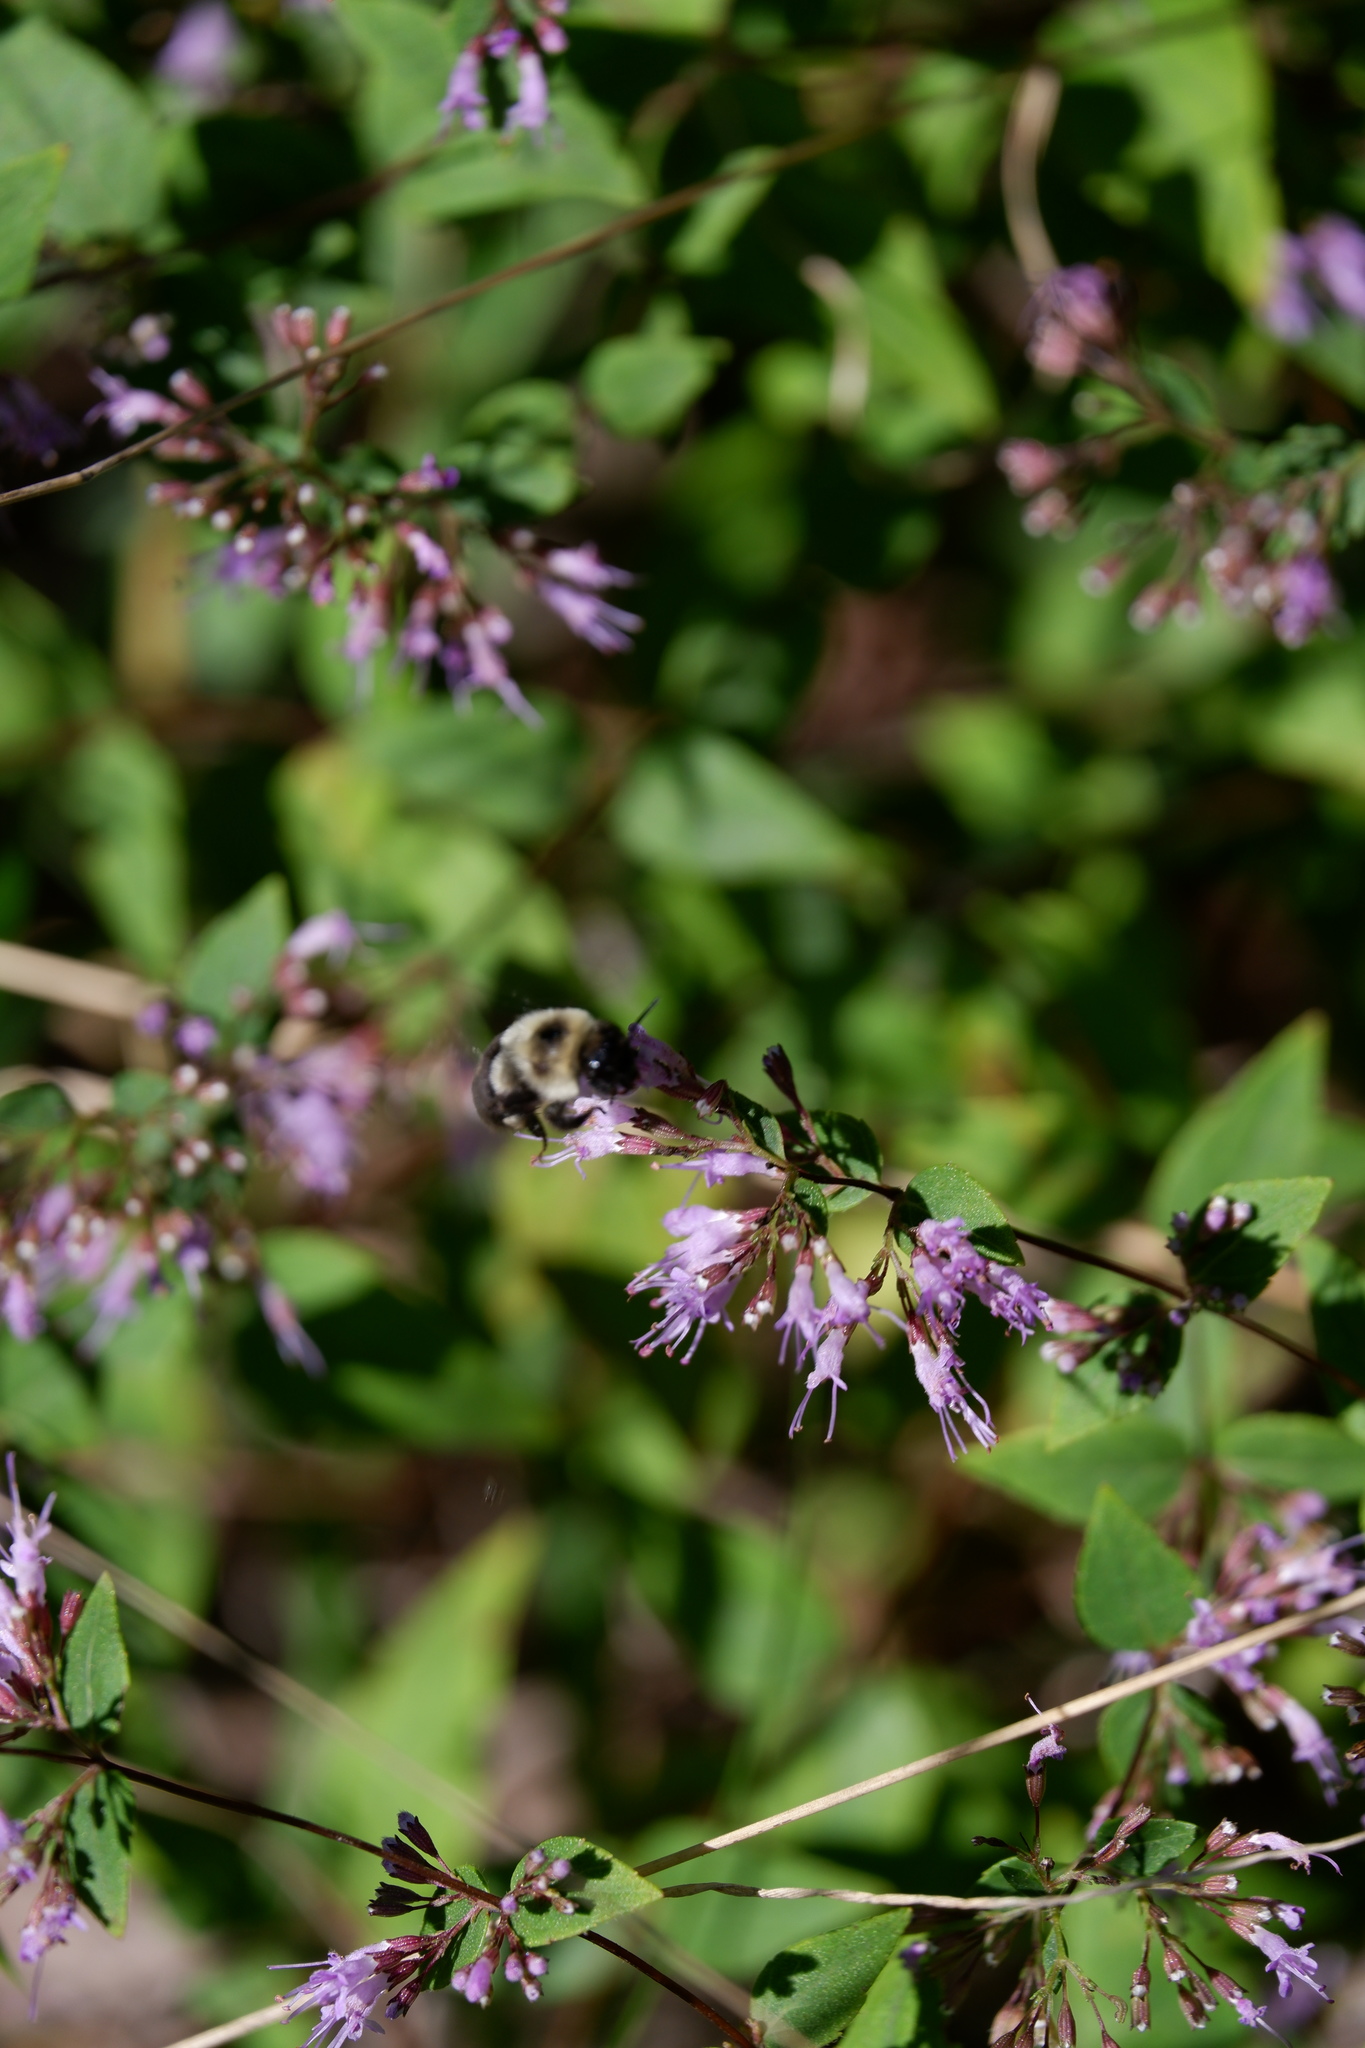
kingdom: Animalia
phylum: Arthropoda
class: Insecta
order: Hymenoptera
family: Apidae
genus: Bombus
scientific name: Bombus impatiens
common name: Common eastern bumble bee
